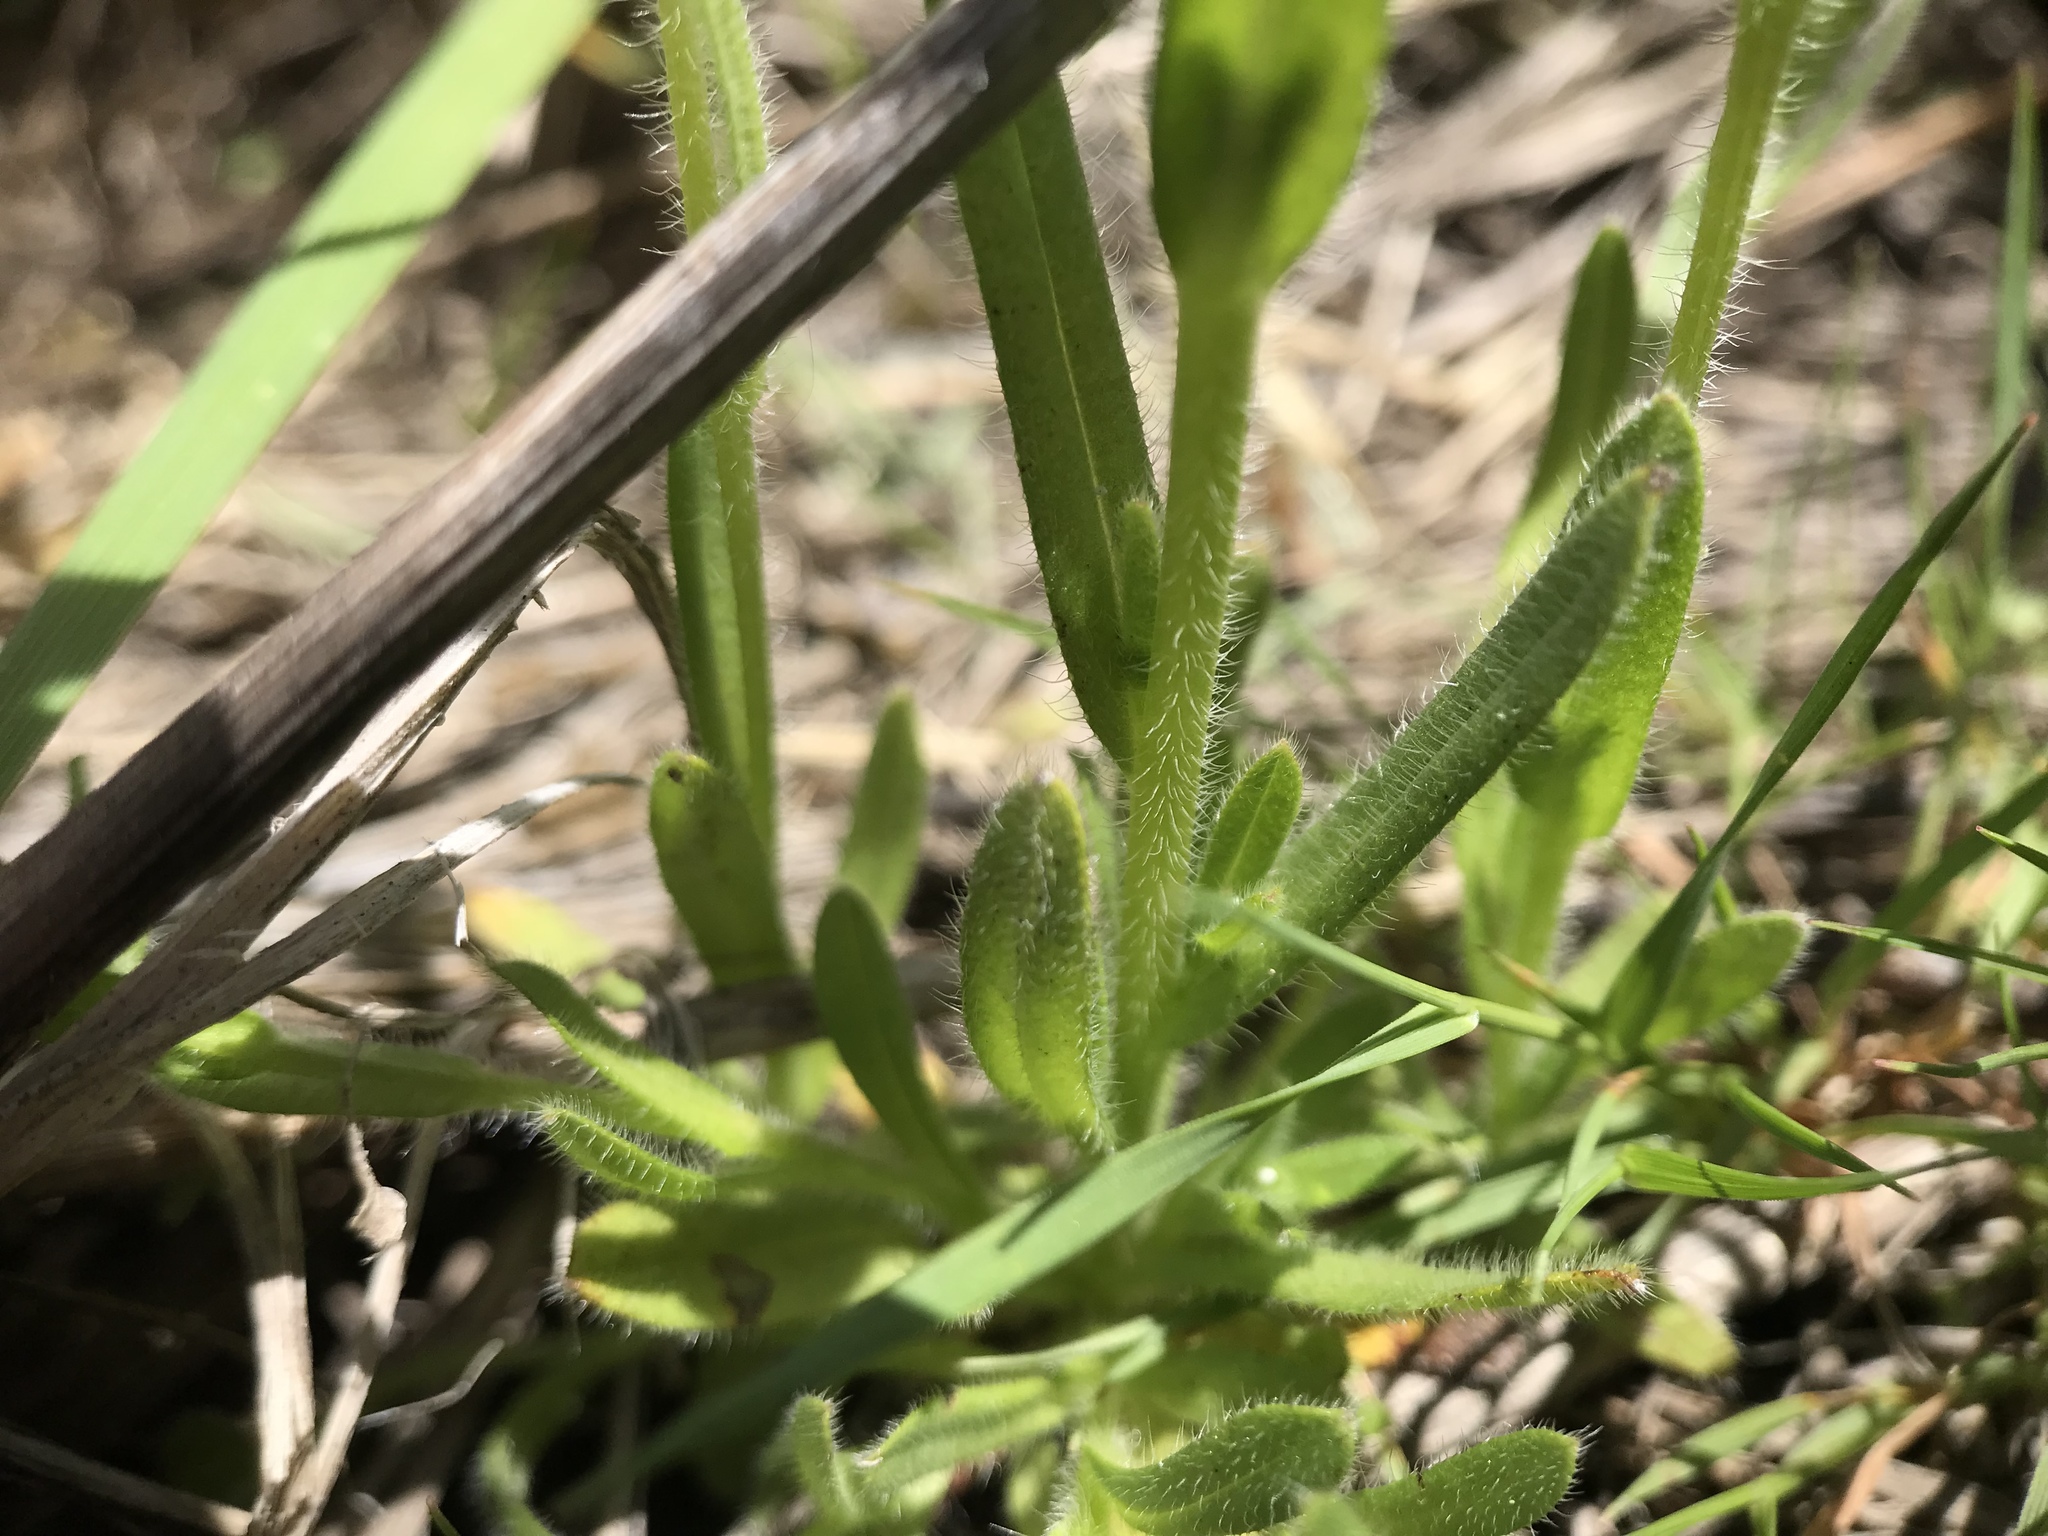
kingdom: Plantae
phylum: Tracheophyta
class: Magnoliopsida
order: Boraginales
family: Boraginaceae
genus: Myosotis
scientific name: Myosotis discolor
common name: Changing forget-me-not
